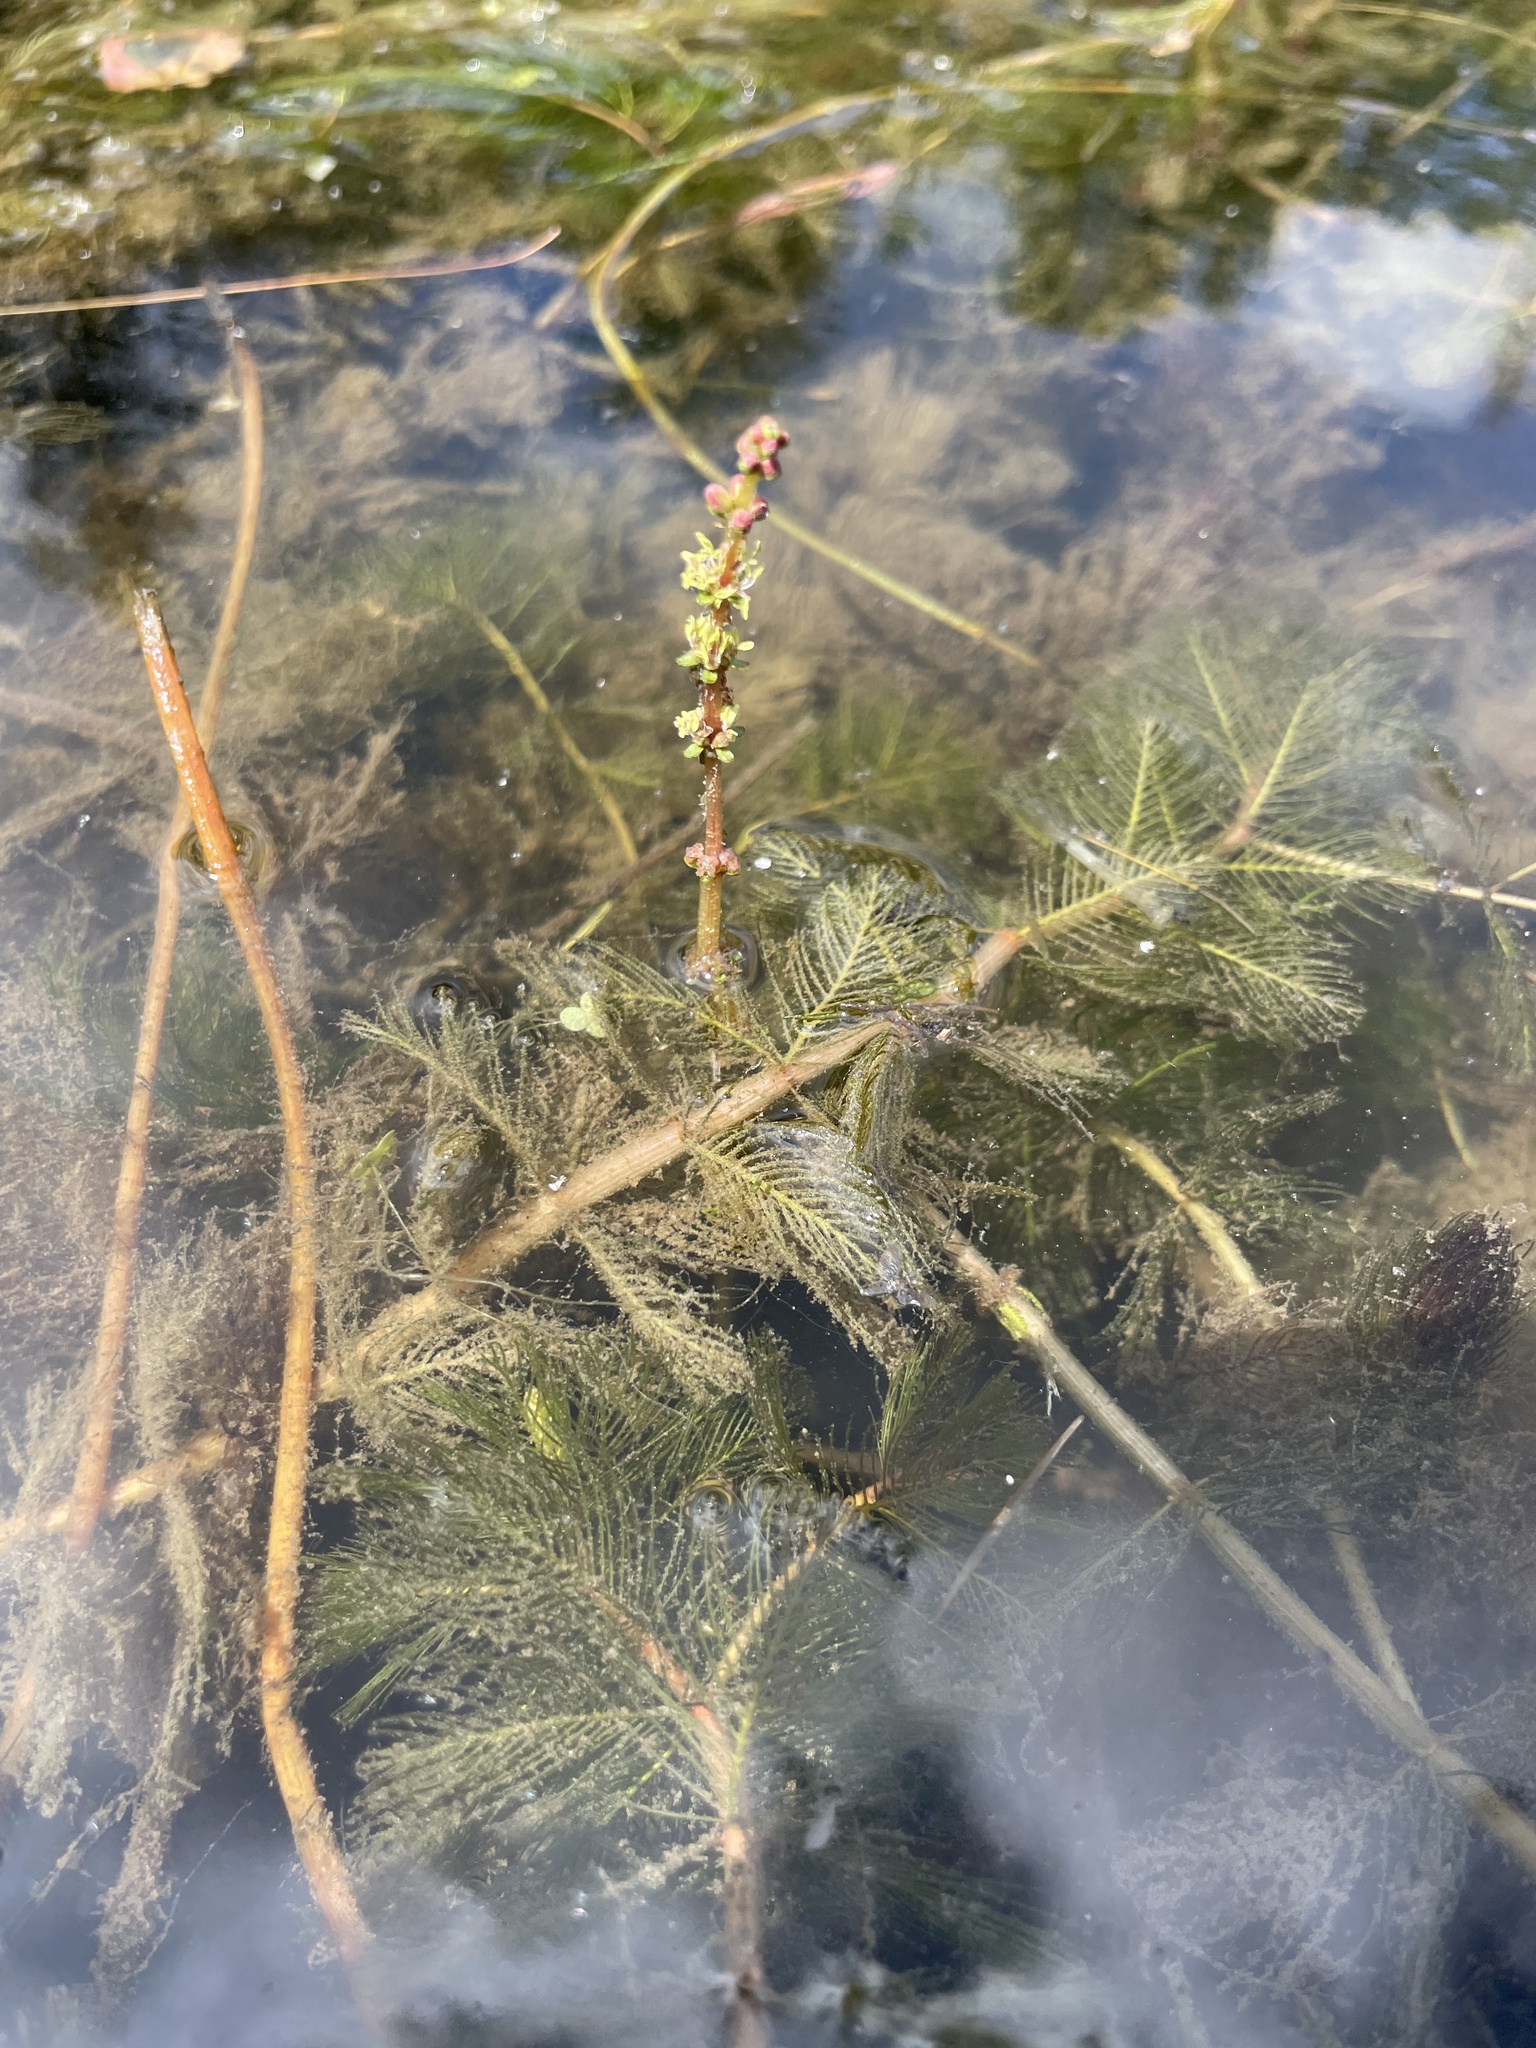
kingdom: Plantae
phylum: Tracheophyta
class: Magnoliopsida
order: Saxifragales
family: Haloragaceae
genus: Myriophyllum
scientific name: Myriophyllum spicatum
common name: Spiked water-milfoil
